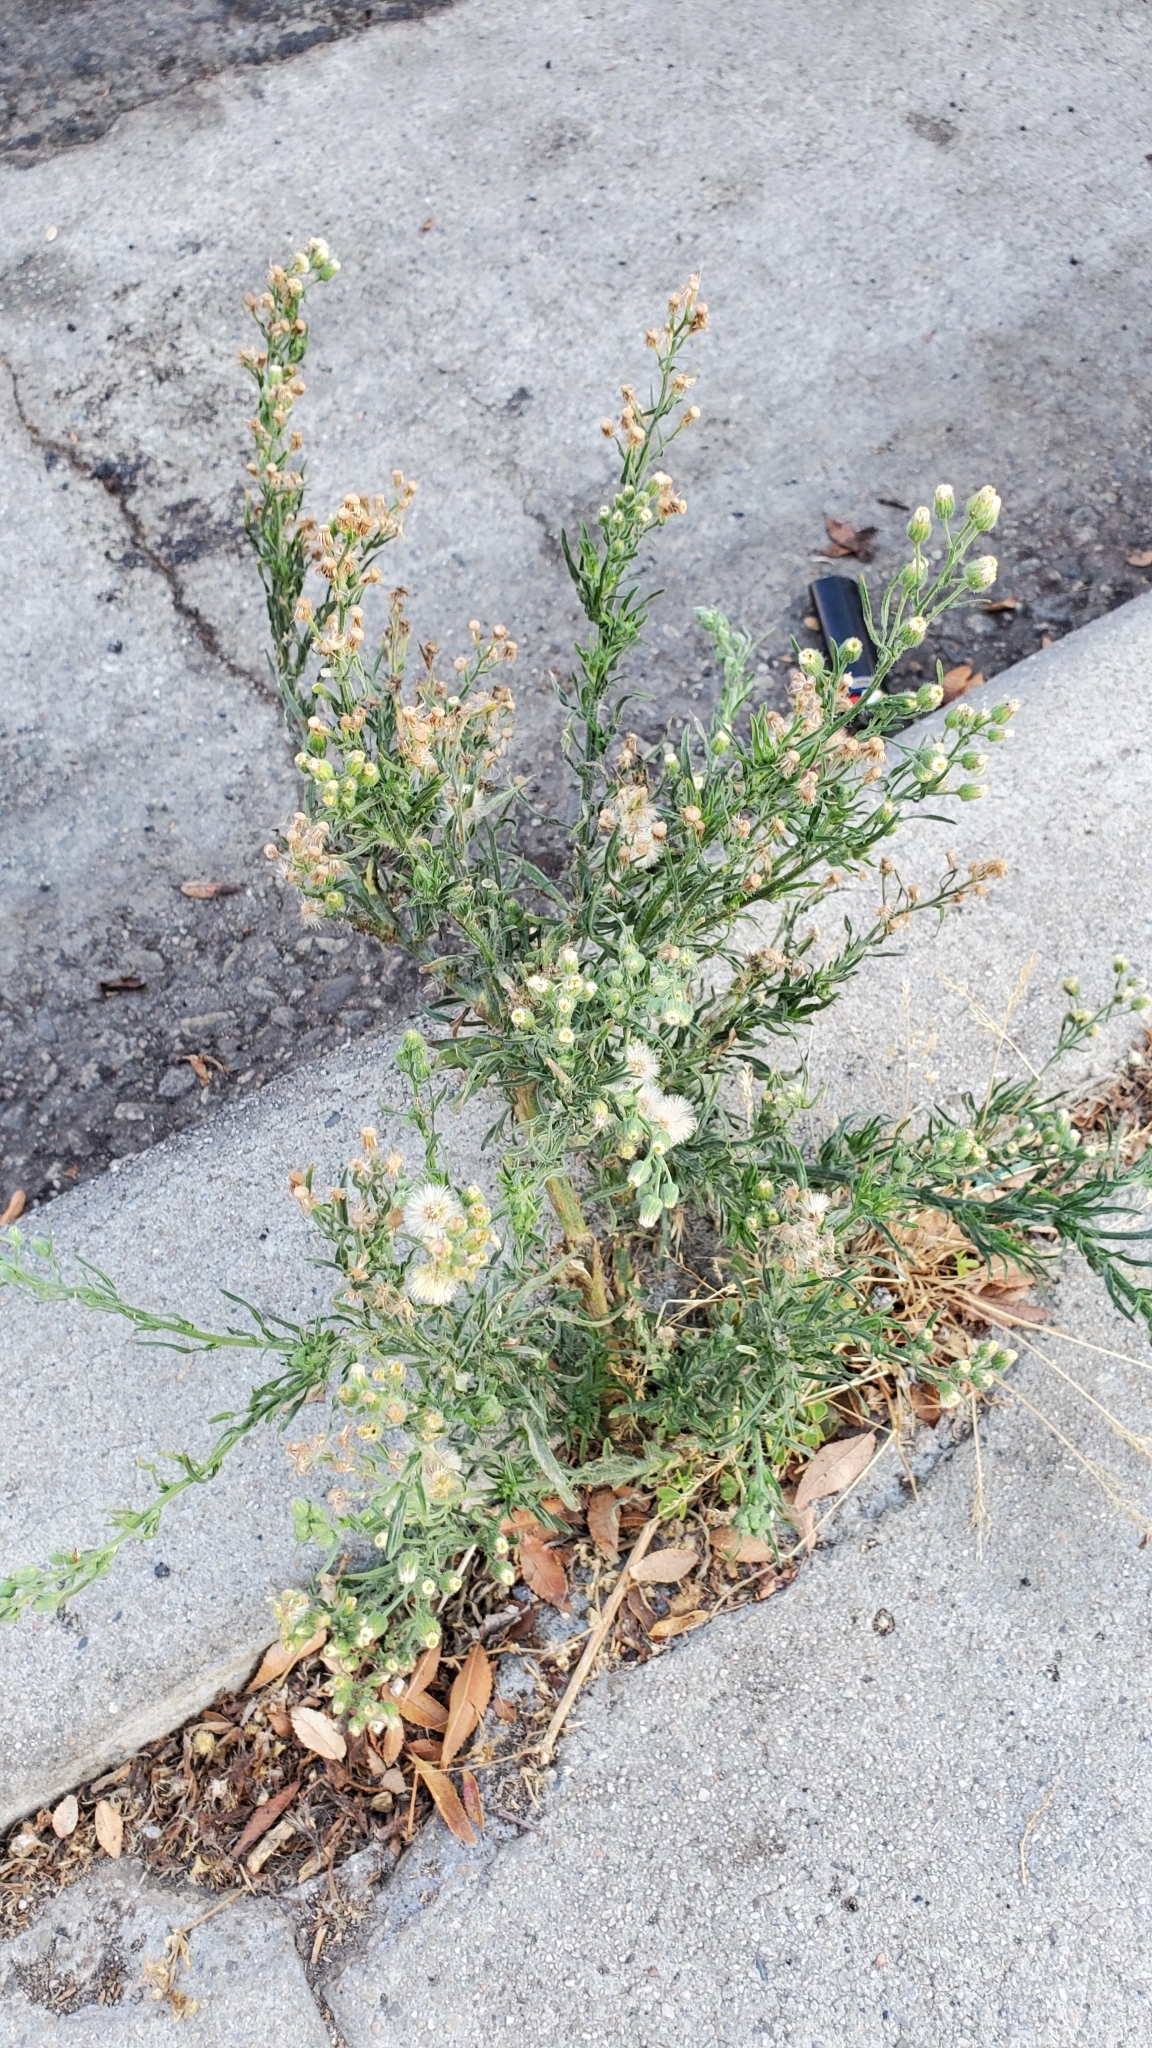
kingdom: Plantae
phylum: Tracheophyta
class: Magnoliopsida
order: Asterales
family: Asteraceae
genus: Erigeron
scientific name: Erigeron bonariensis
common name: Argentine fleabane
